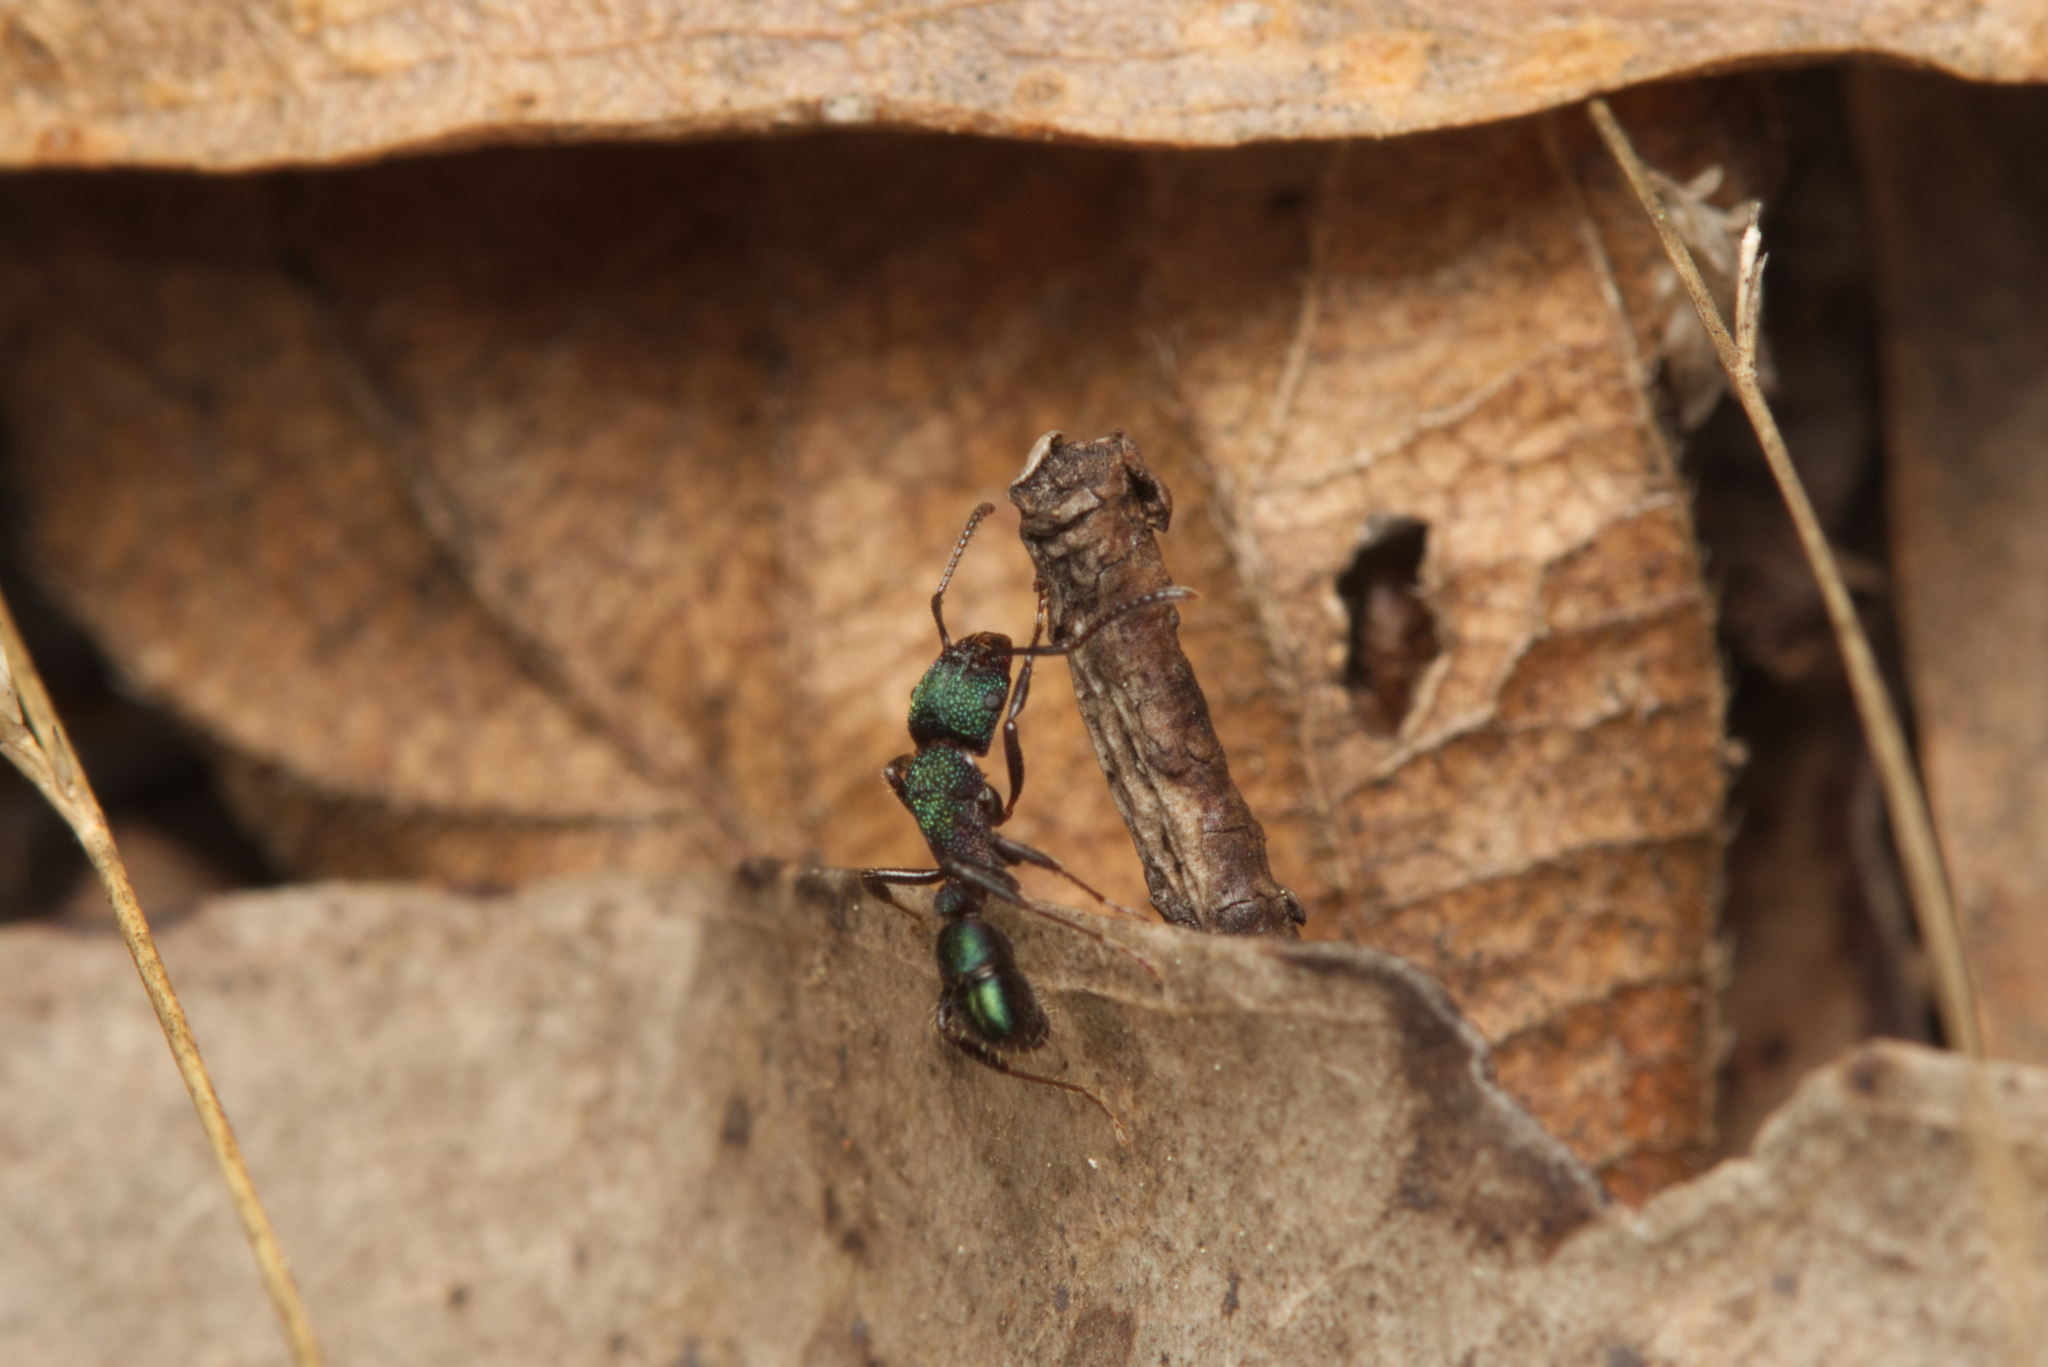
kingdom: Animalia
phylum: Arthropoda
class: Insecta
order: Hymenoptera
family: Formicidae
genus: Rhytidoponera
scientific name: Rhytidoponera metallica
